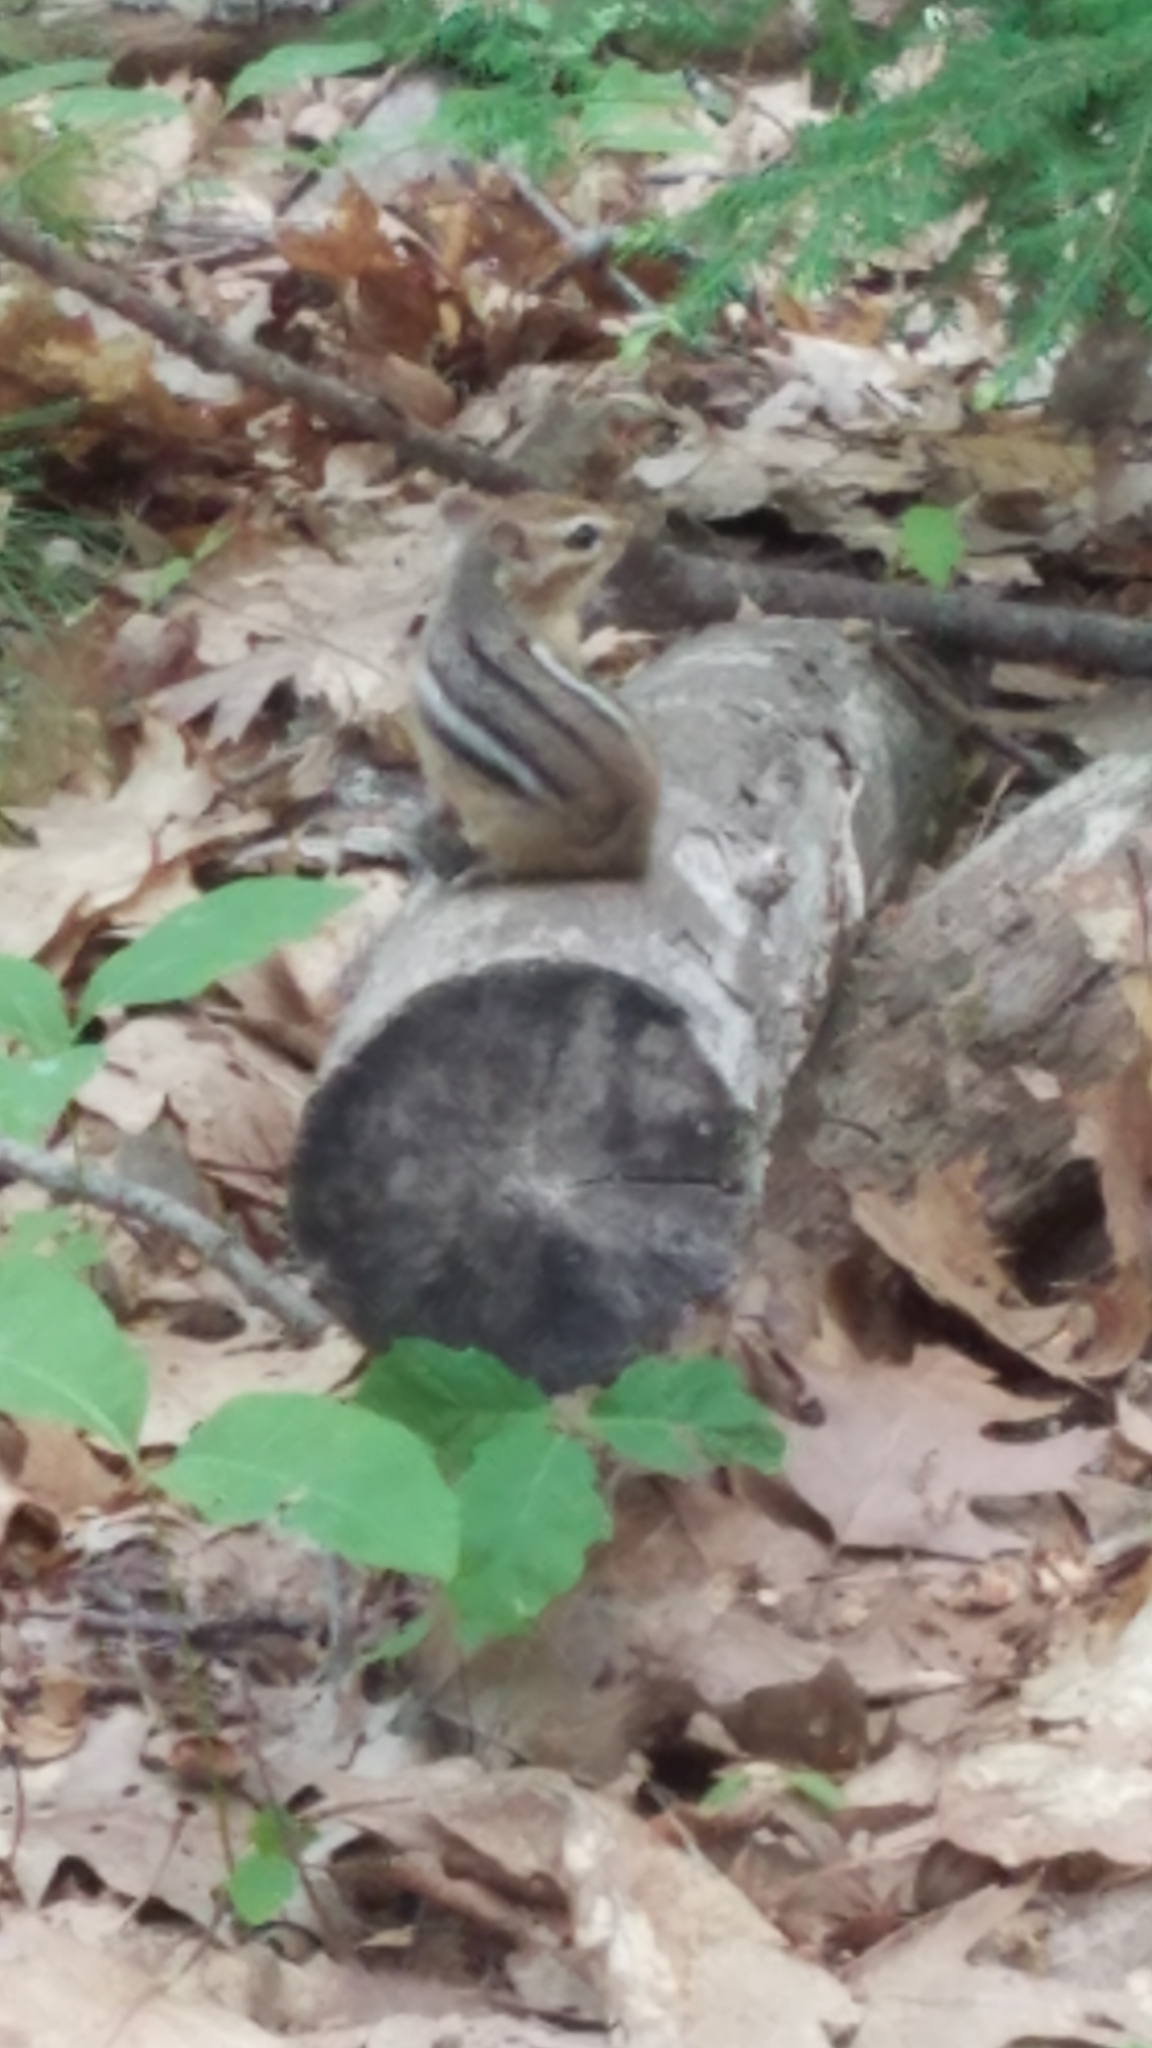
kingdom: Animalia
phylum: Chordata
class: Mammalia
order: Rodentia
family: Sciuridae
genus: Tamias
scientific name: Tamias striatus
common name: Eastern chipmunk
